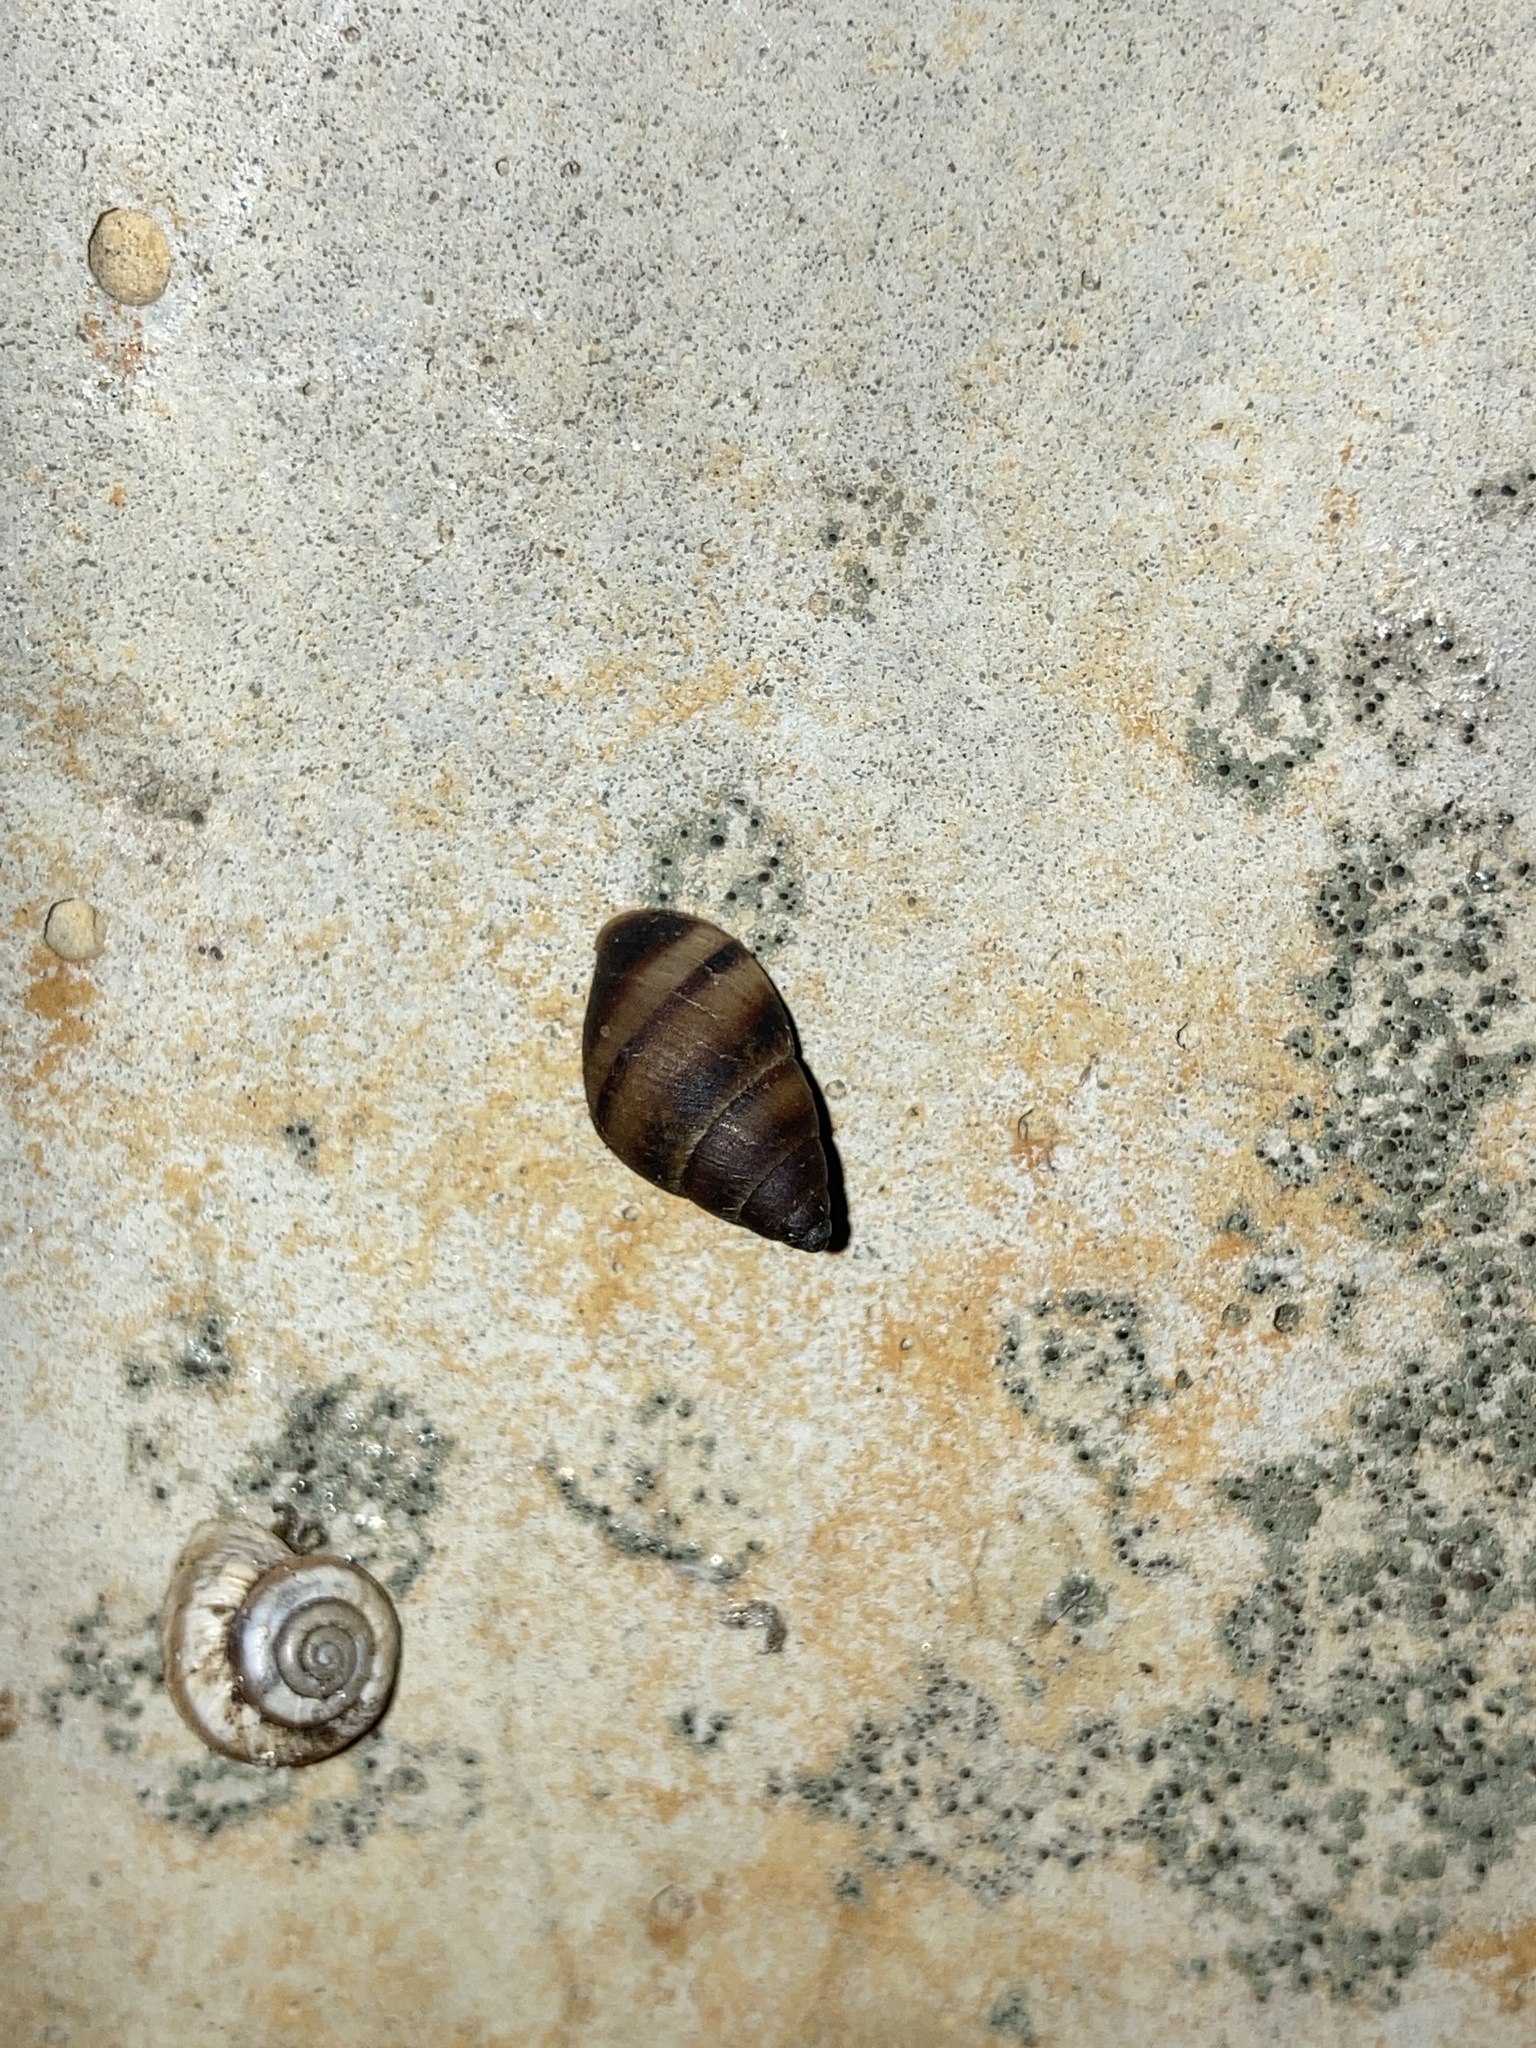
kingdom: Animalia
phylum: Mollusca
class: Gastropoda
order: Stylommatophora
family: Bulimulidae
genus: Bulimulus
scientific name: Bulimulus guadalupensis
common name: West indian bulimulus
